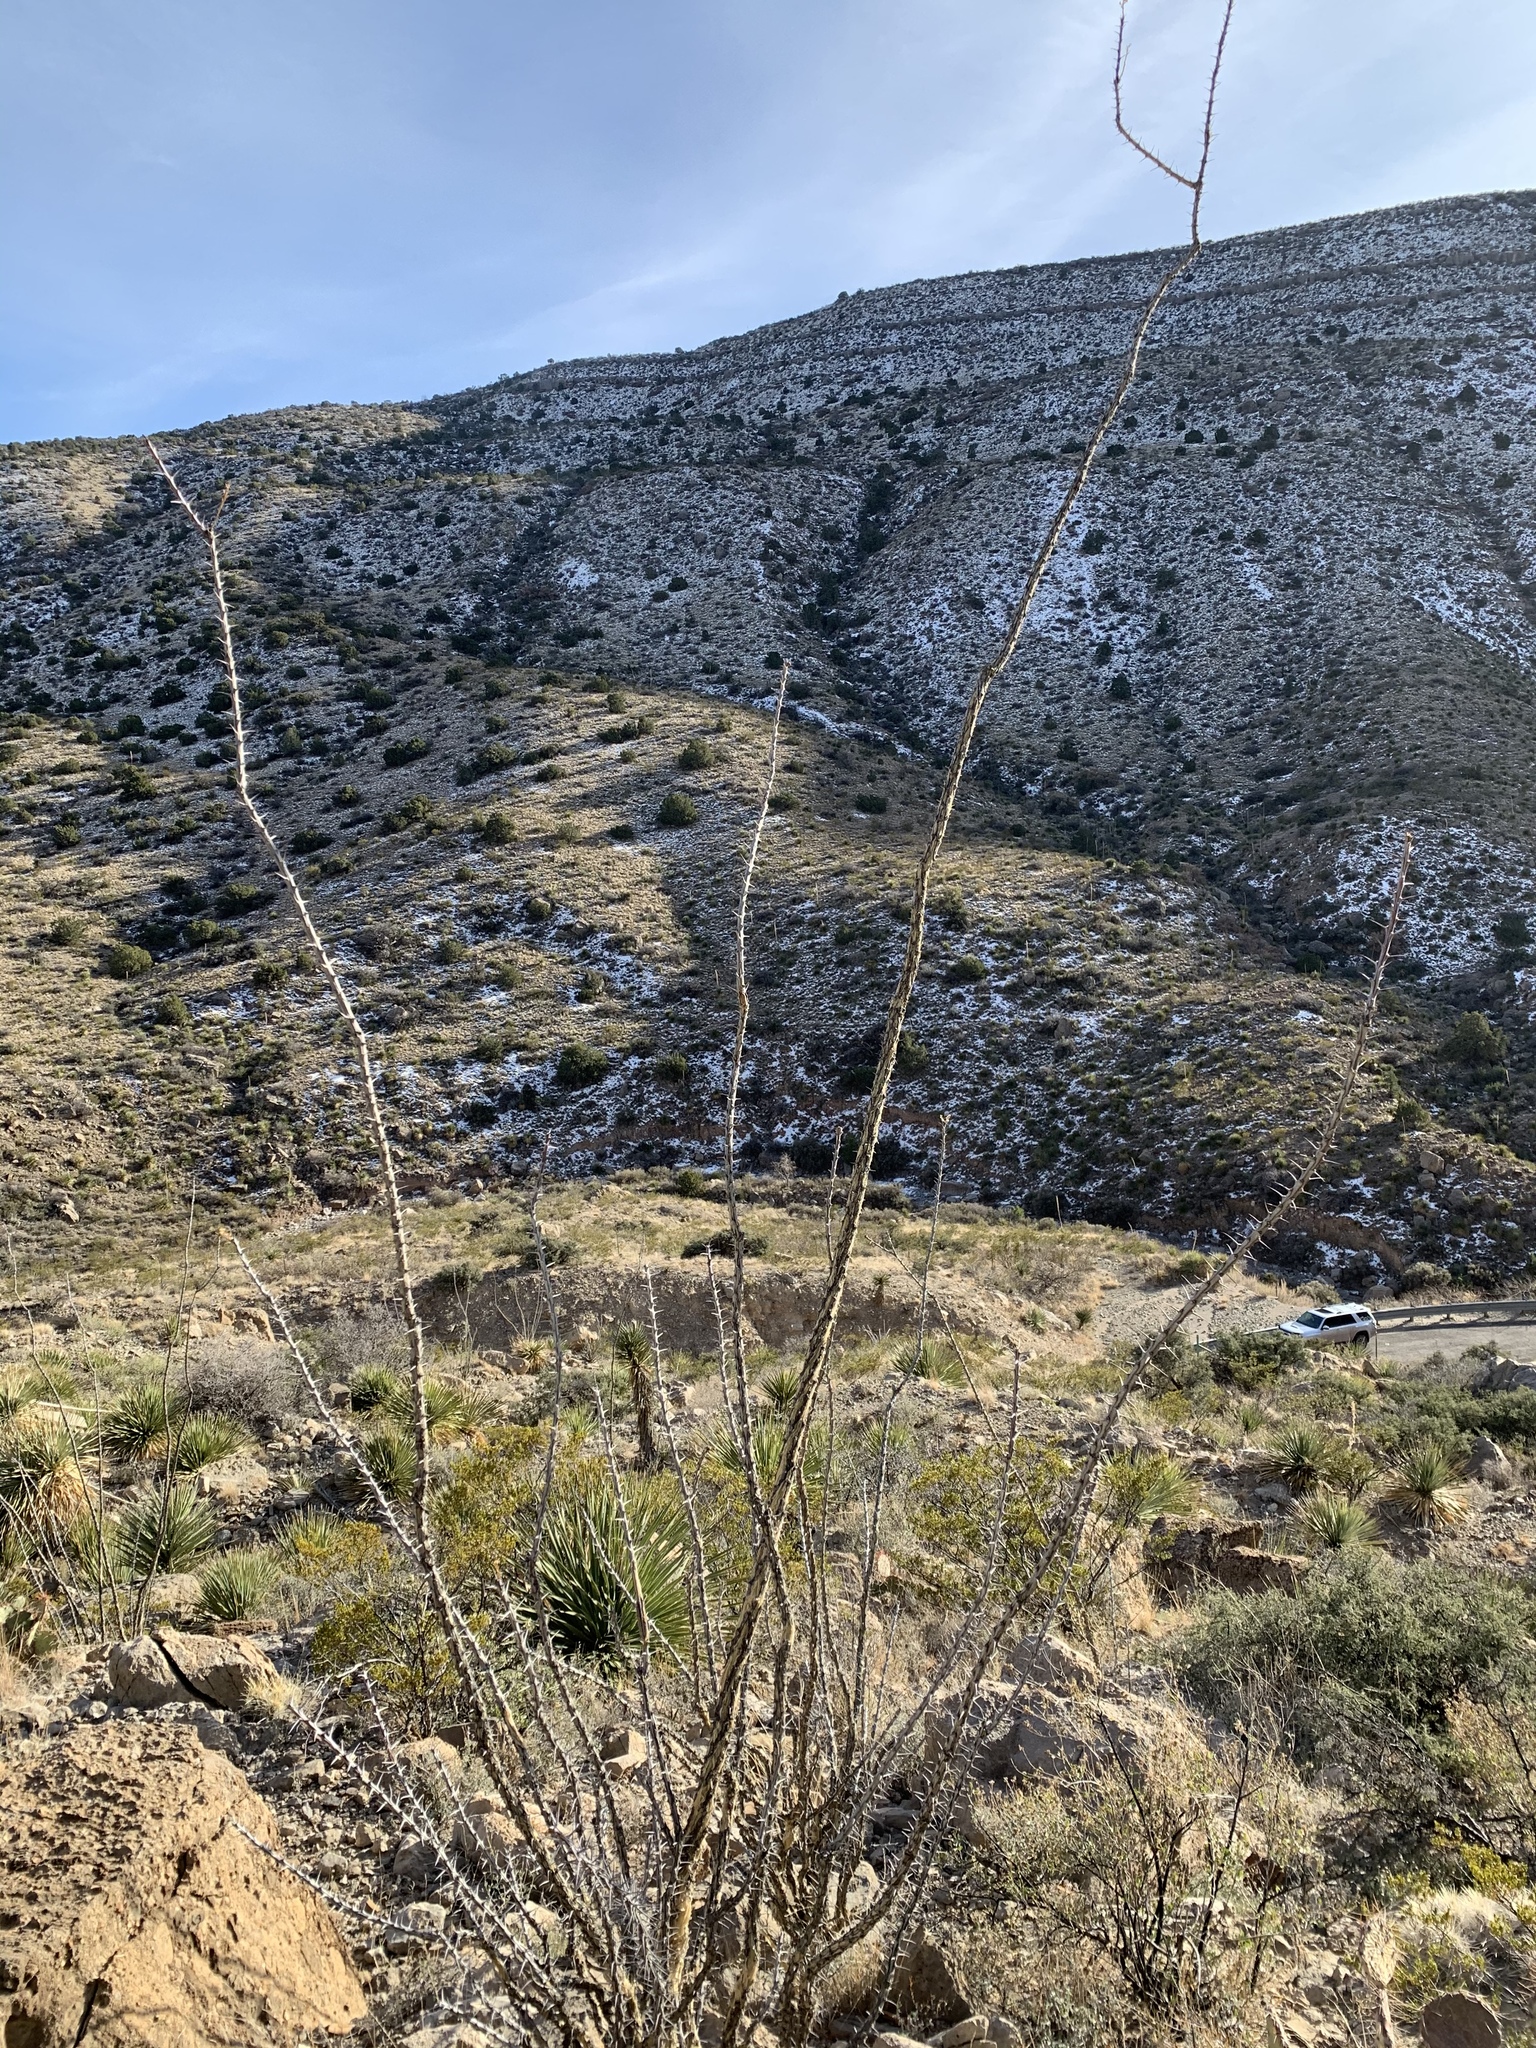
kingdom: Plantae
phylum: Tracheophyta
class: Magnoliopsida
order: Ericales
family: Fouquieriaceae
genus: Fouquieria
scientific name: Fouquieria splendens
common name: Vine-cactus
